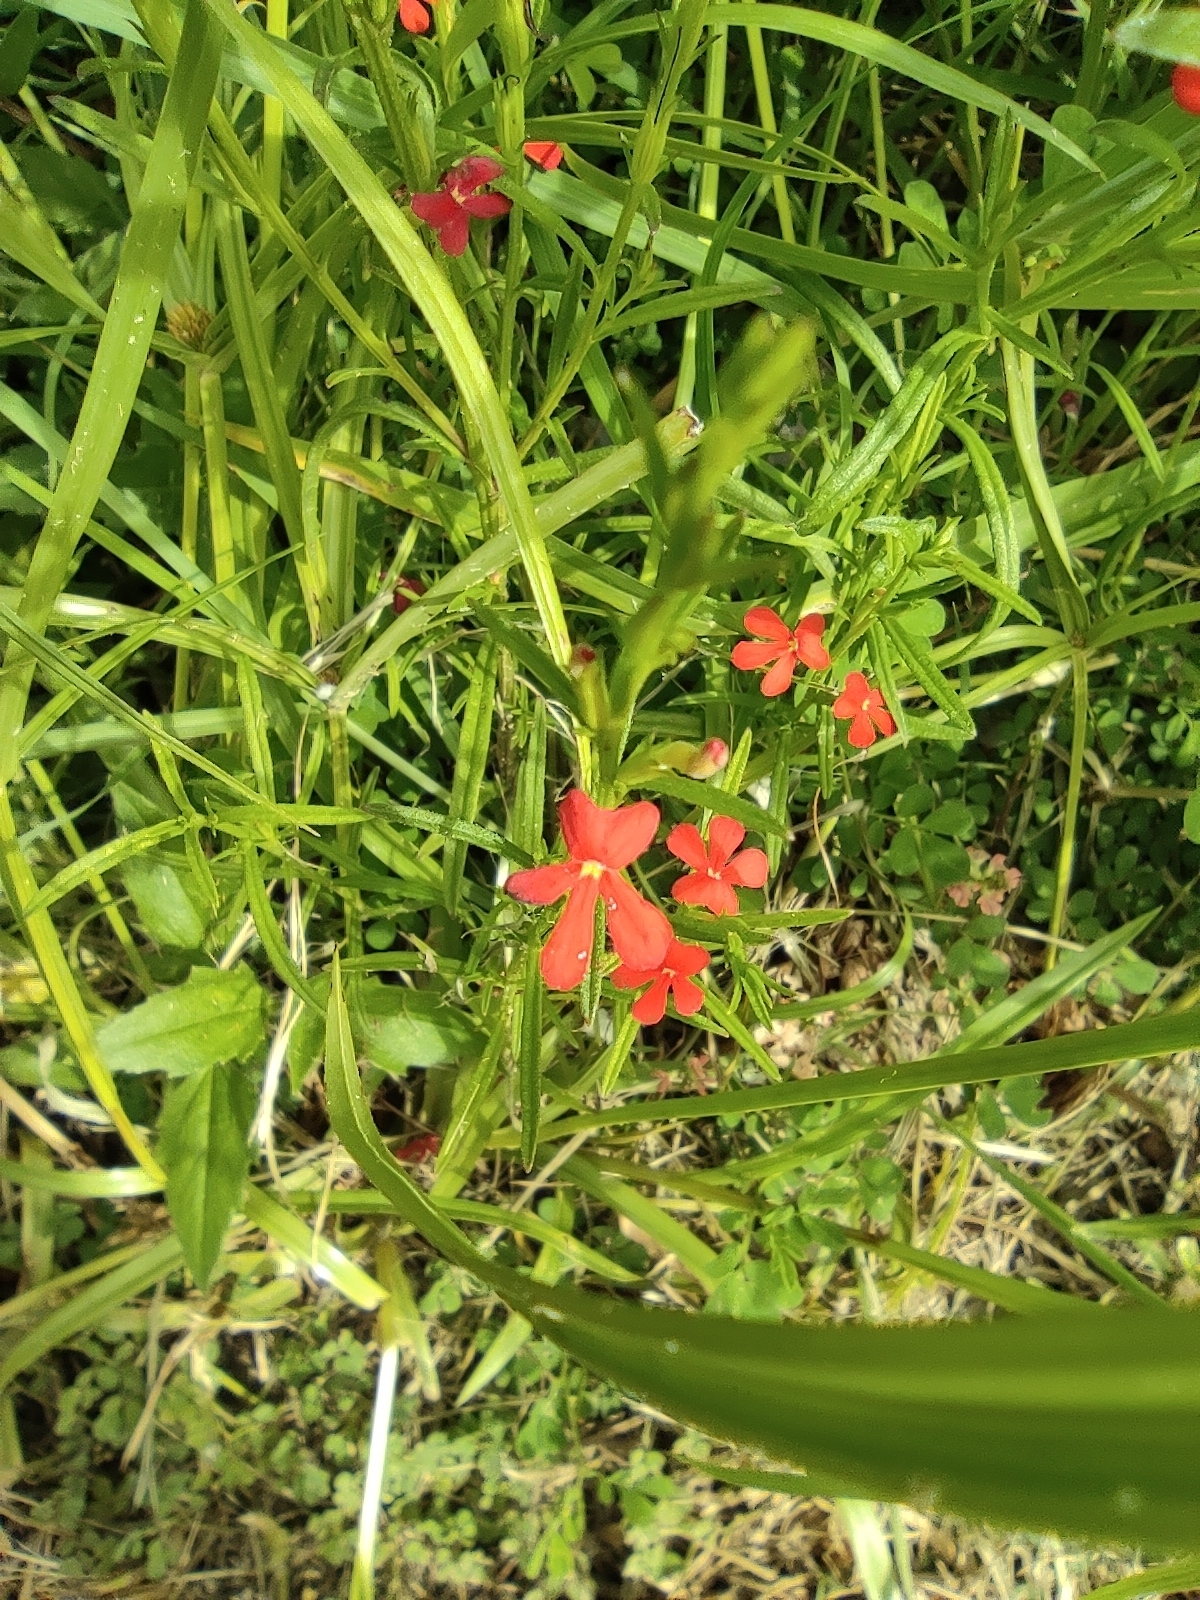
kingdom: Plantae
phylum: Tracheophyta
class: Magnoliopsida
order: Lamiales
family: Orobanchaceae
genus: Striga
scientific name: Striga asiatica
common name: Asiatic witchweed
